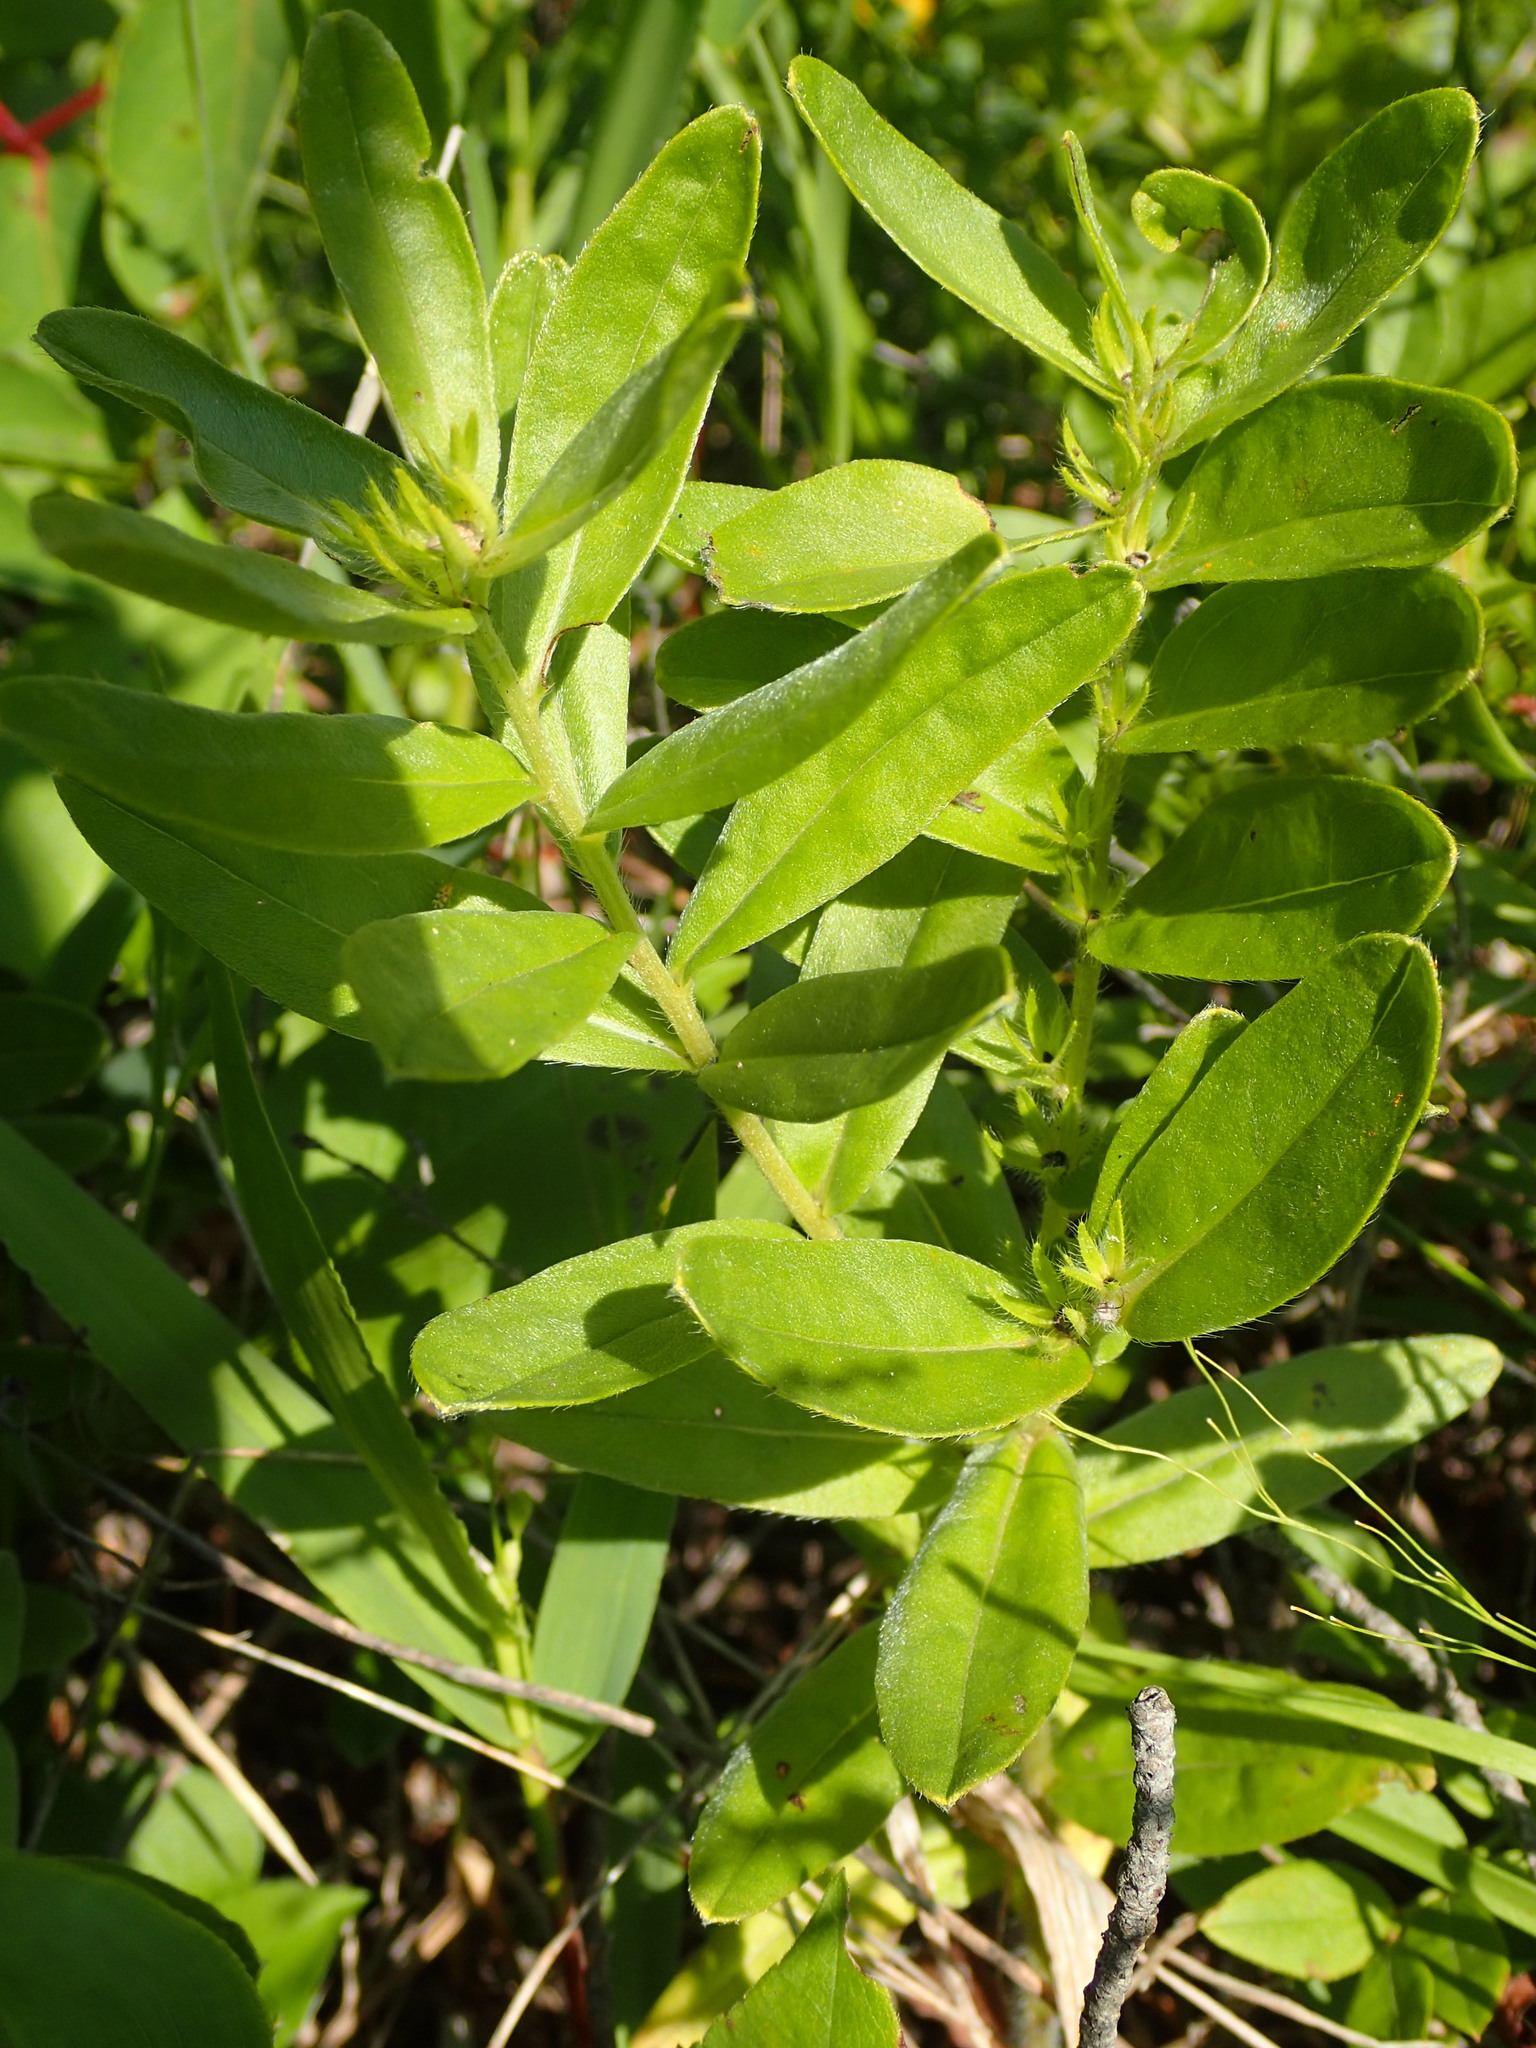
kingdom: Plantae
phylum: Tracheophyta
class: Magnoliopsida
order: Boraginales
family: Boraginaceae
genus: Lithospermum
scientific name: Lithospermum canescens
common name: Hoary puccoon
